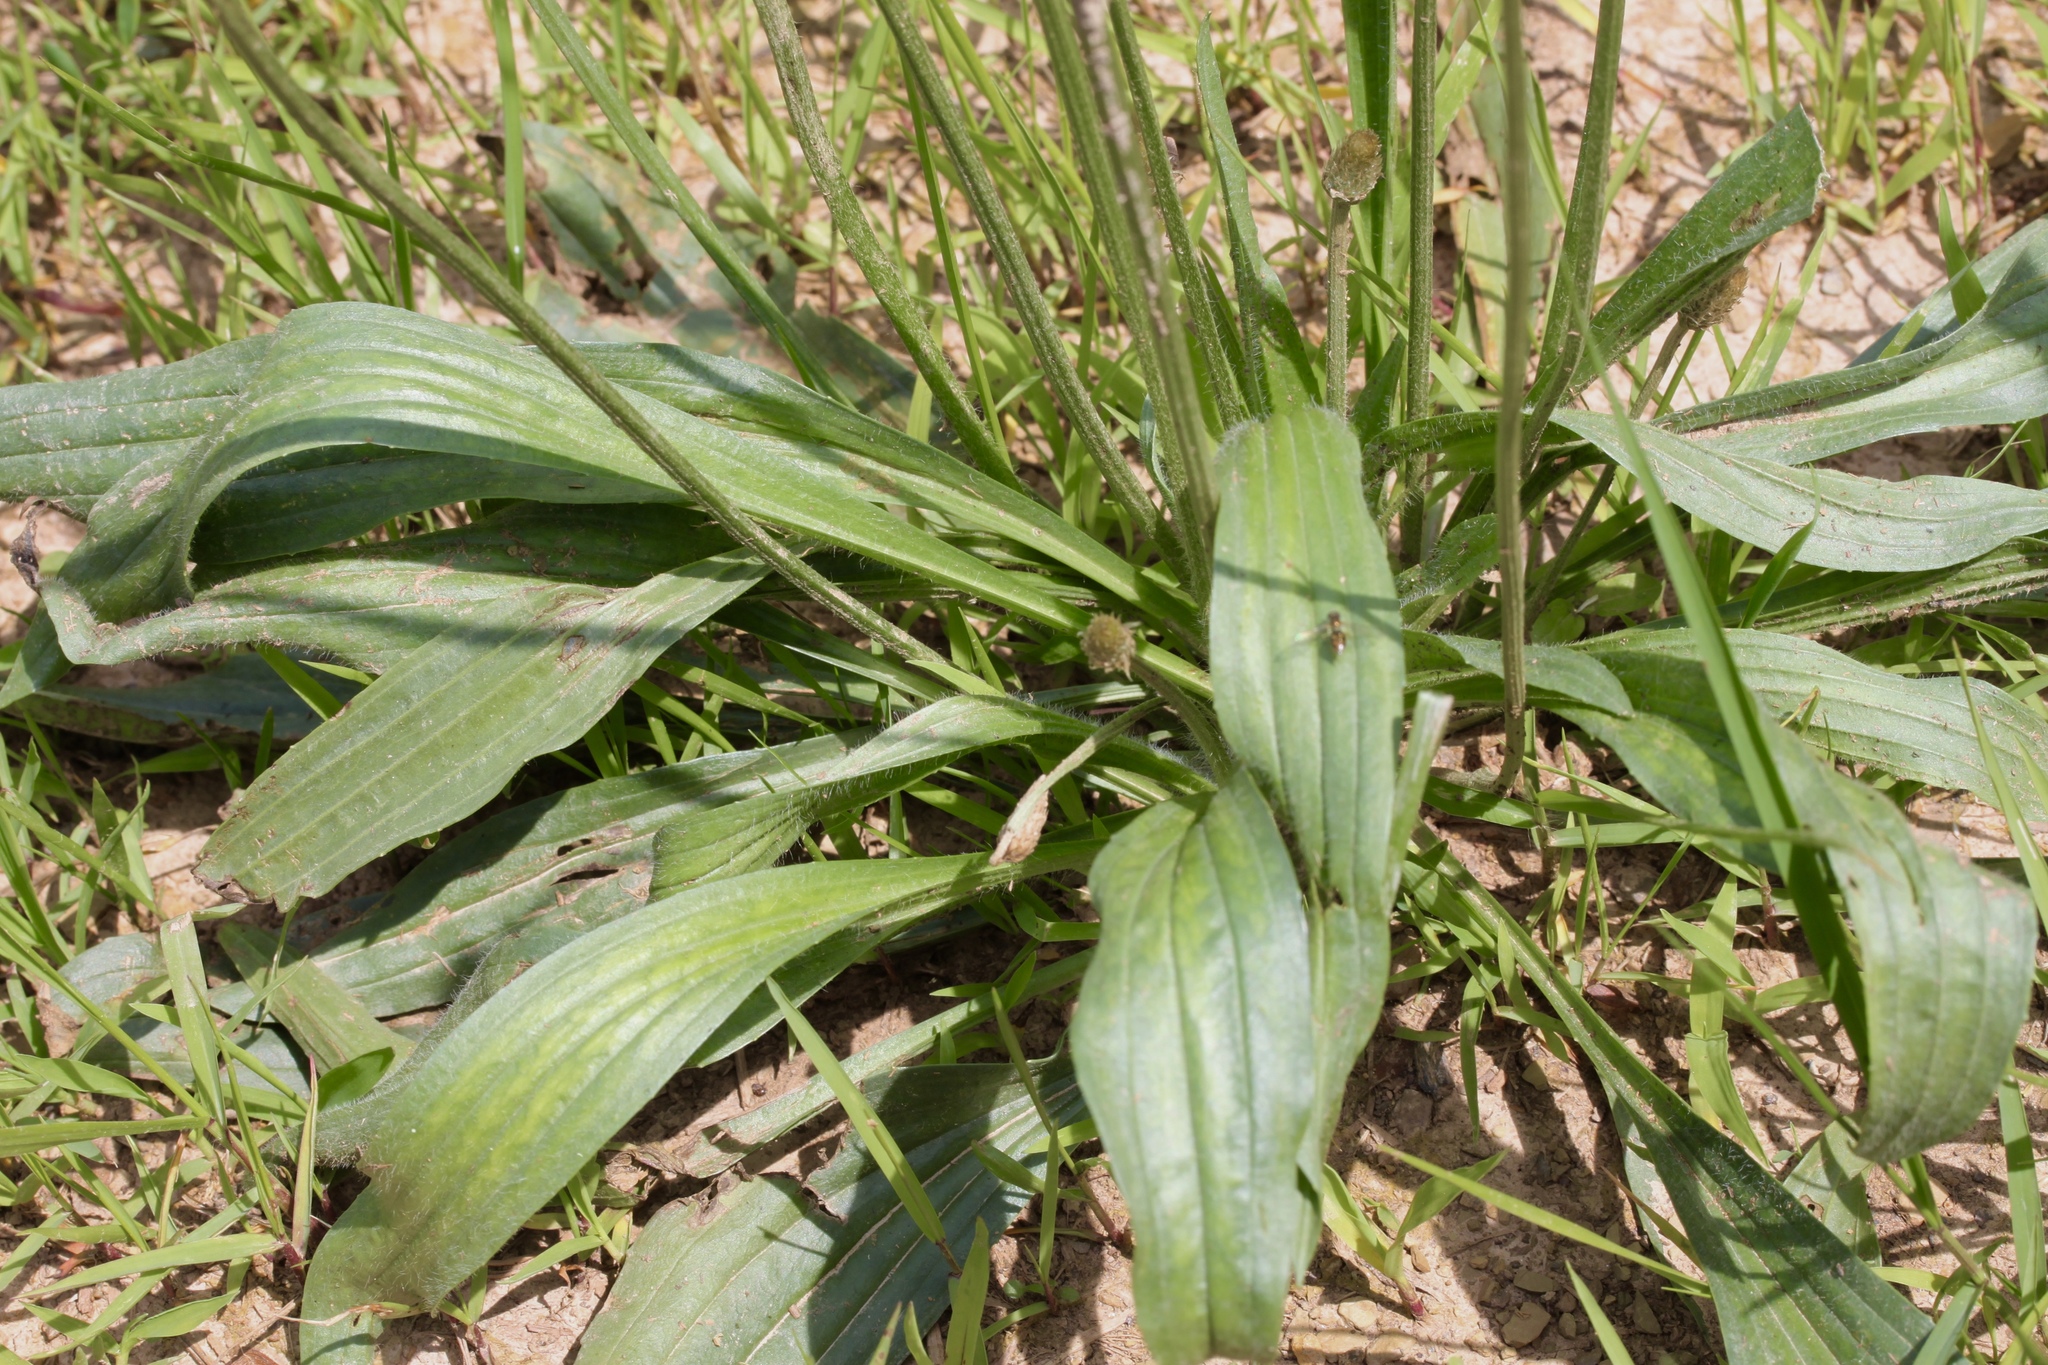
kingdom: Plantae
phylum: Tracheophyta
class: Magnoliopsida
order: Lamiales
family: Plantaginaceae
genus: Plantago
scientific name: Plantago lanceolata
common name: Ribwort plantain
